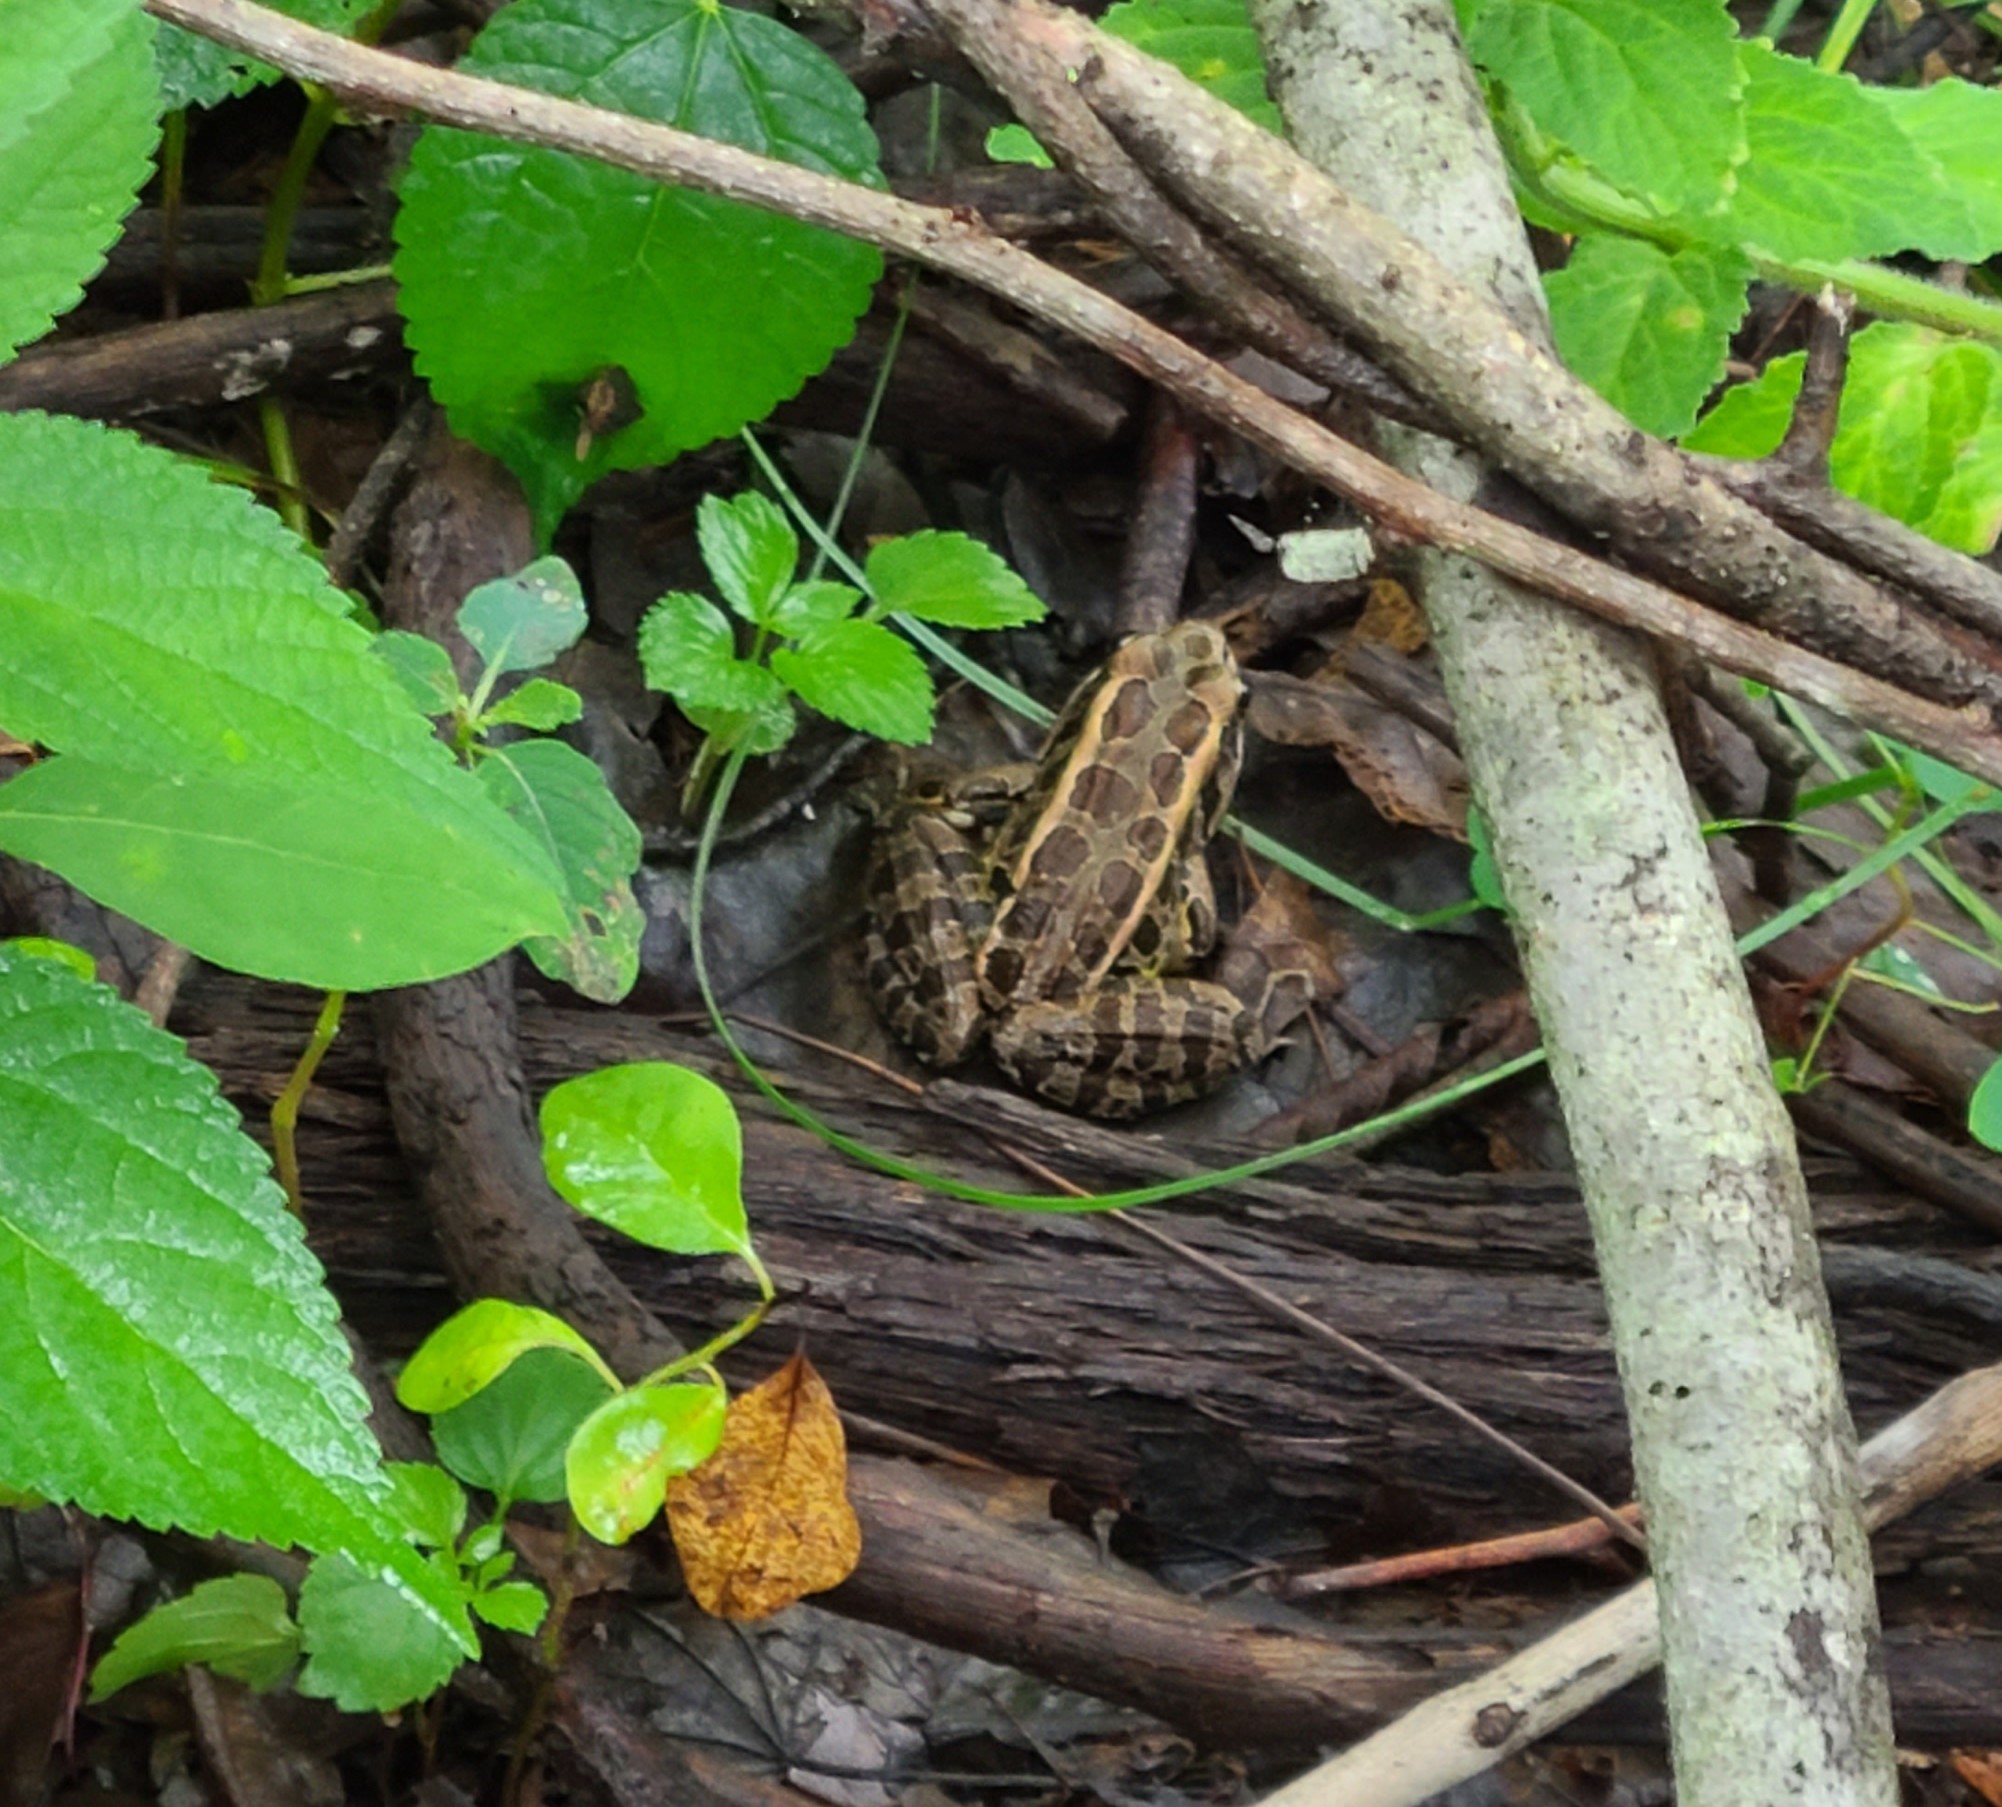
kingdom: Animalia
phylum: Chordata
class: Amphibia
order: Anura
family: Ranidae
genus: Lithobates
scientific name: Lithobates palustris
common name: Pickerel frog
